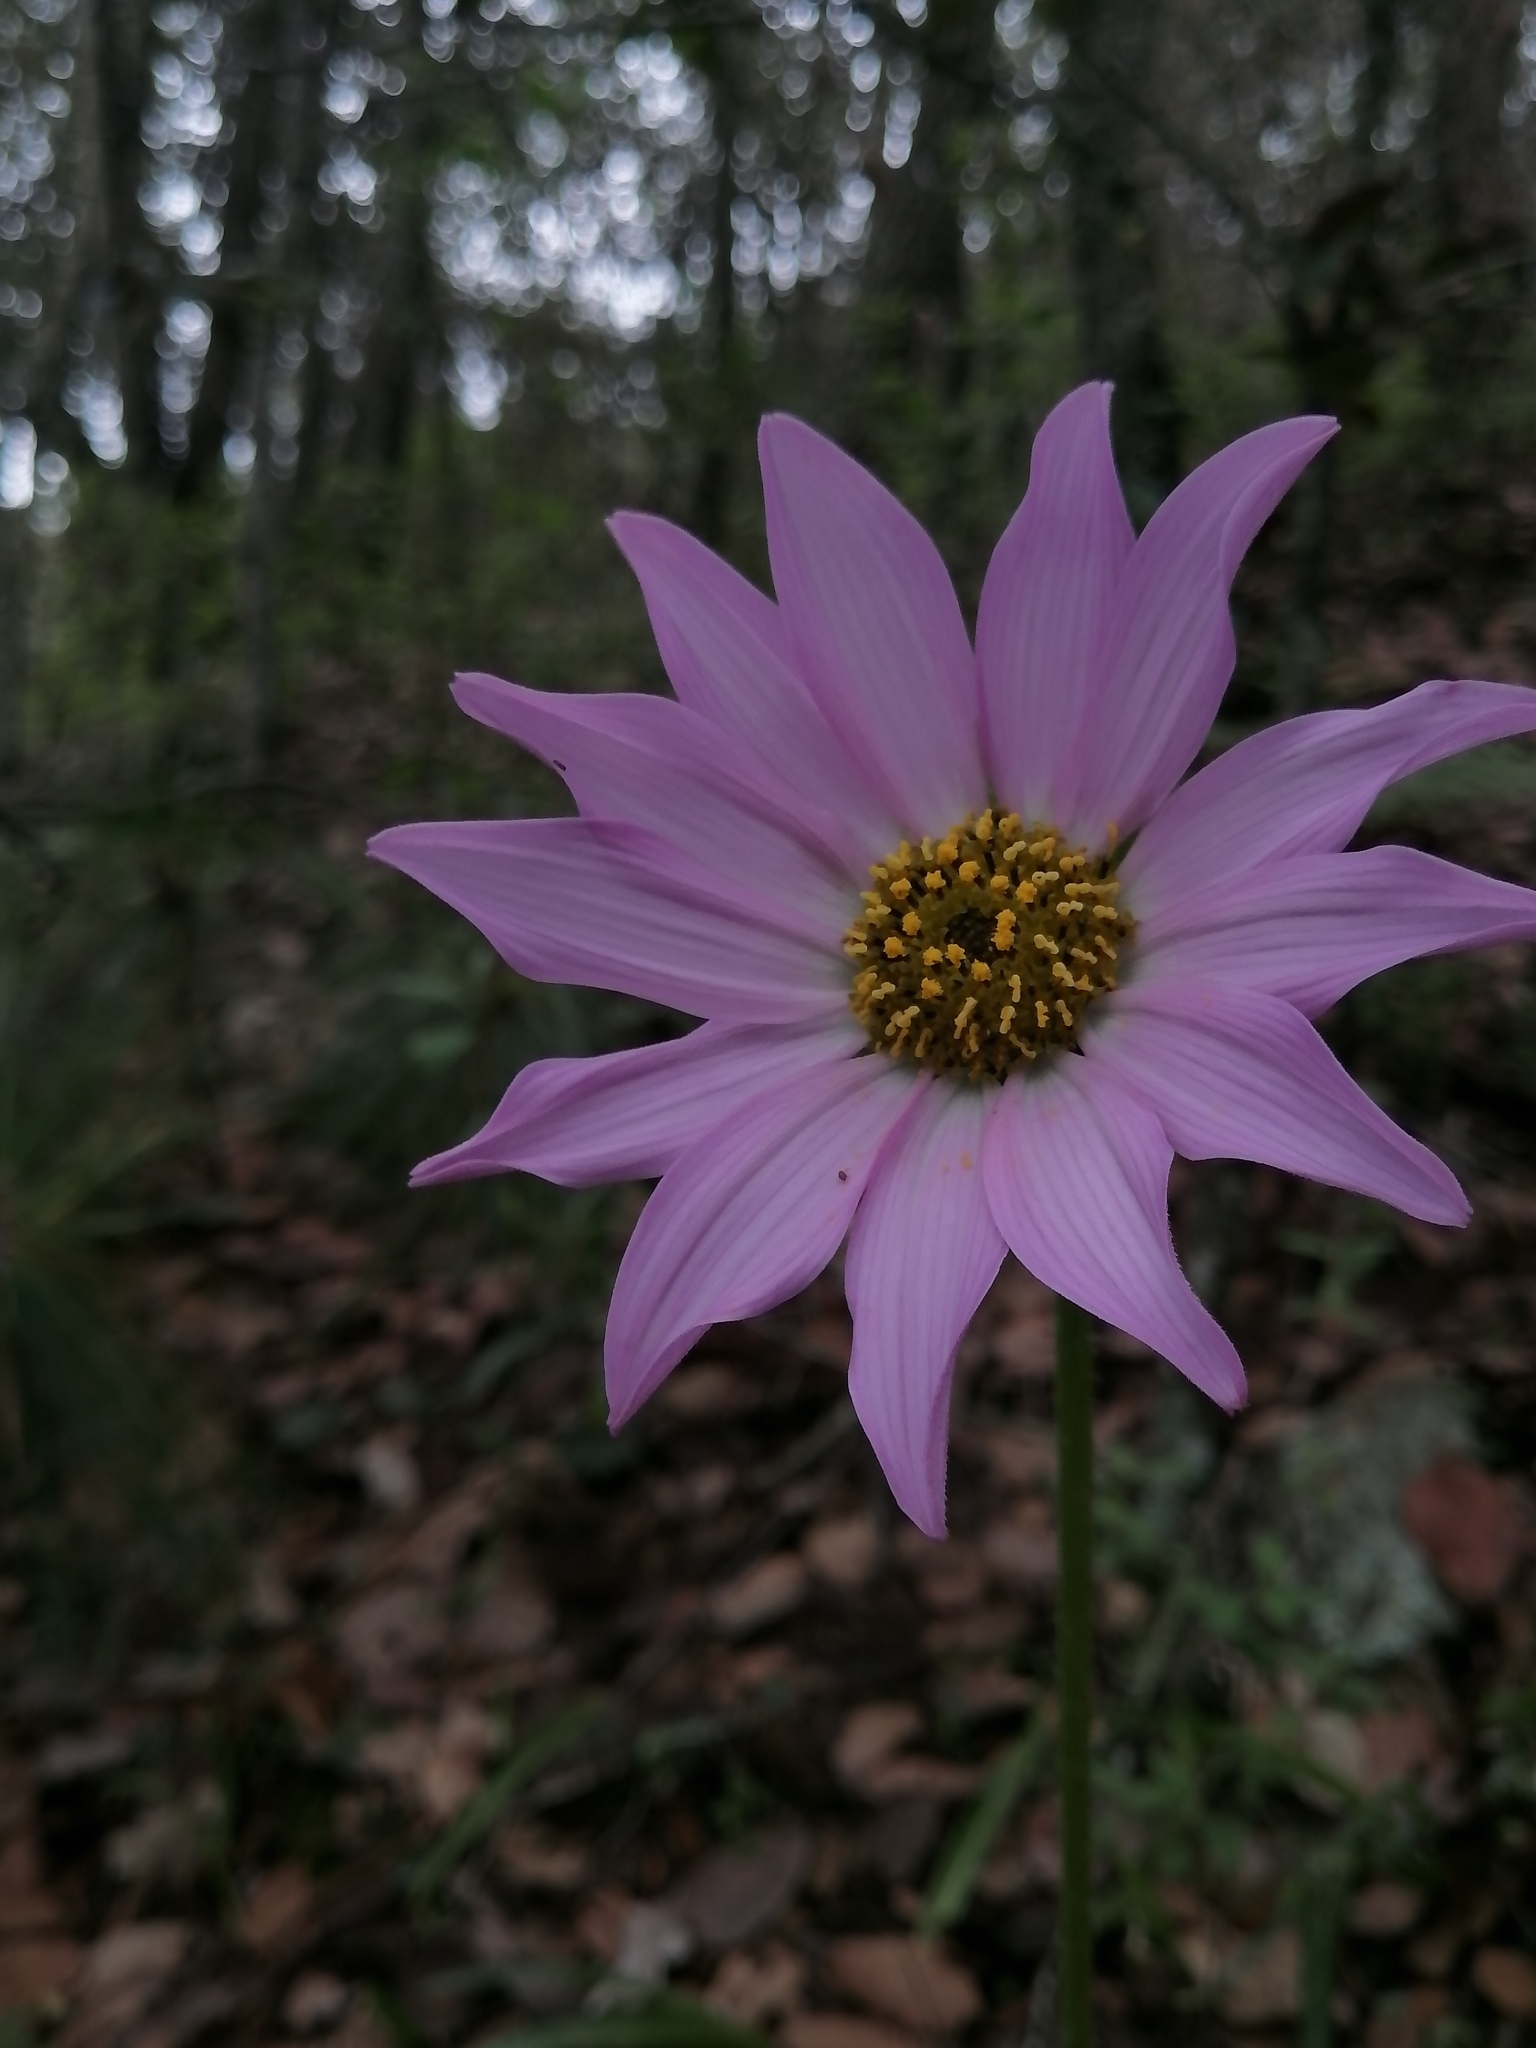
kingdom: Plantae
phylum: Tracheophyta
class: Magnoliopsida
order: Asterales
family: Asteraceae
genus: Iostephane
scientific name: Iostephane heterophylla
